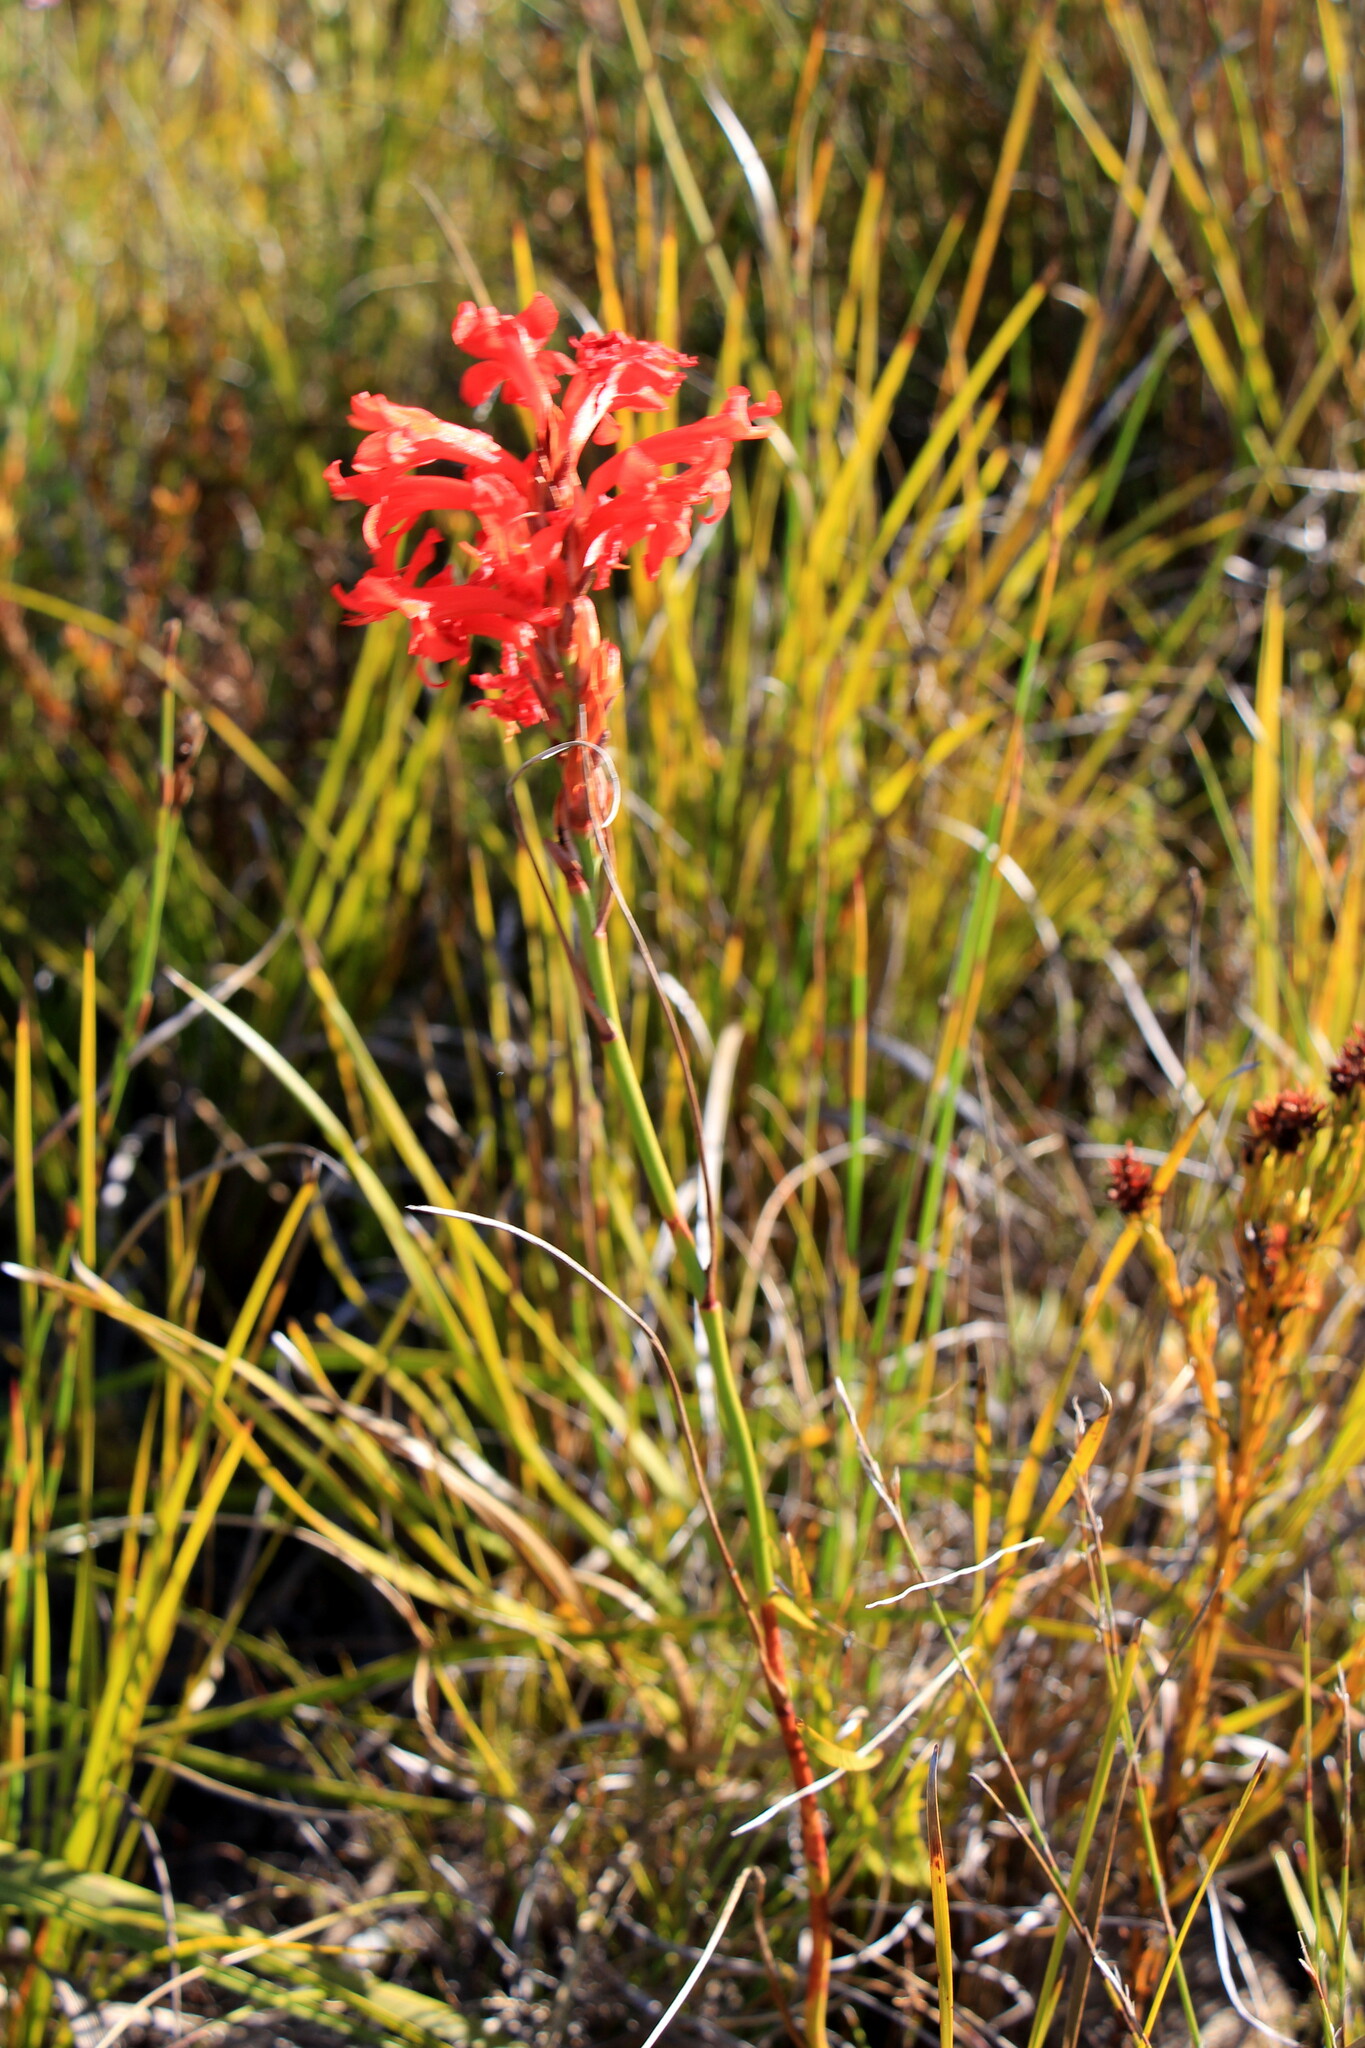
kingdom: Plantae
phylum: Tracheophyta
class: Liliopsida
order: Asparagales
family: Iridaceae
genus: Tritoniopsis
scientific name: Tritoniopsis triticea
